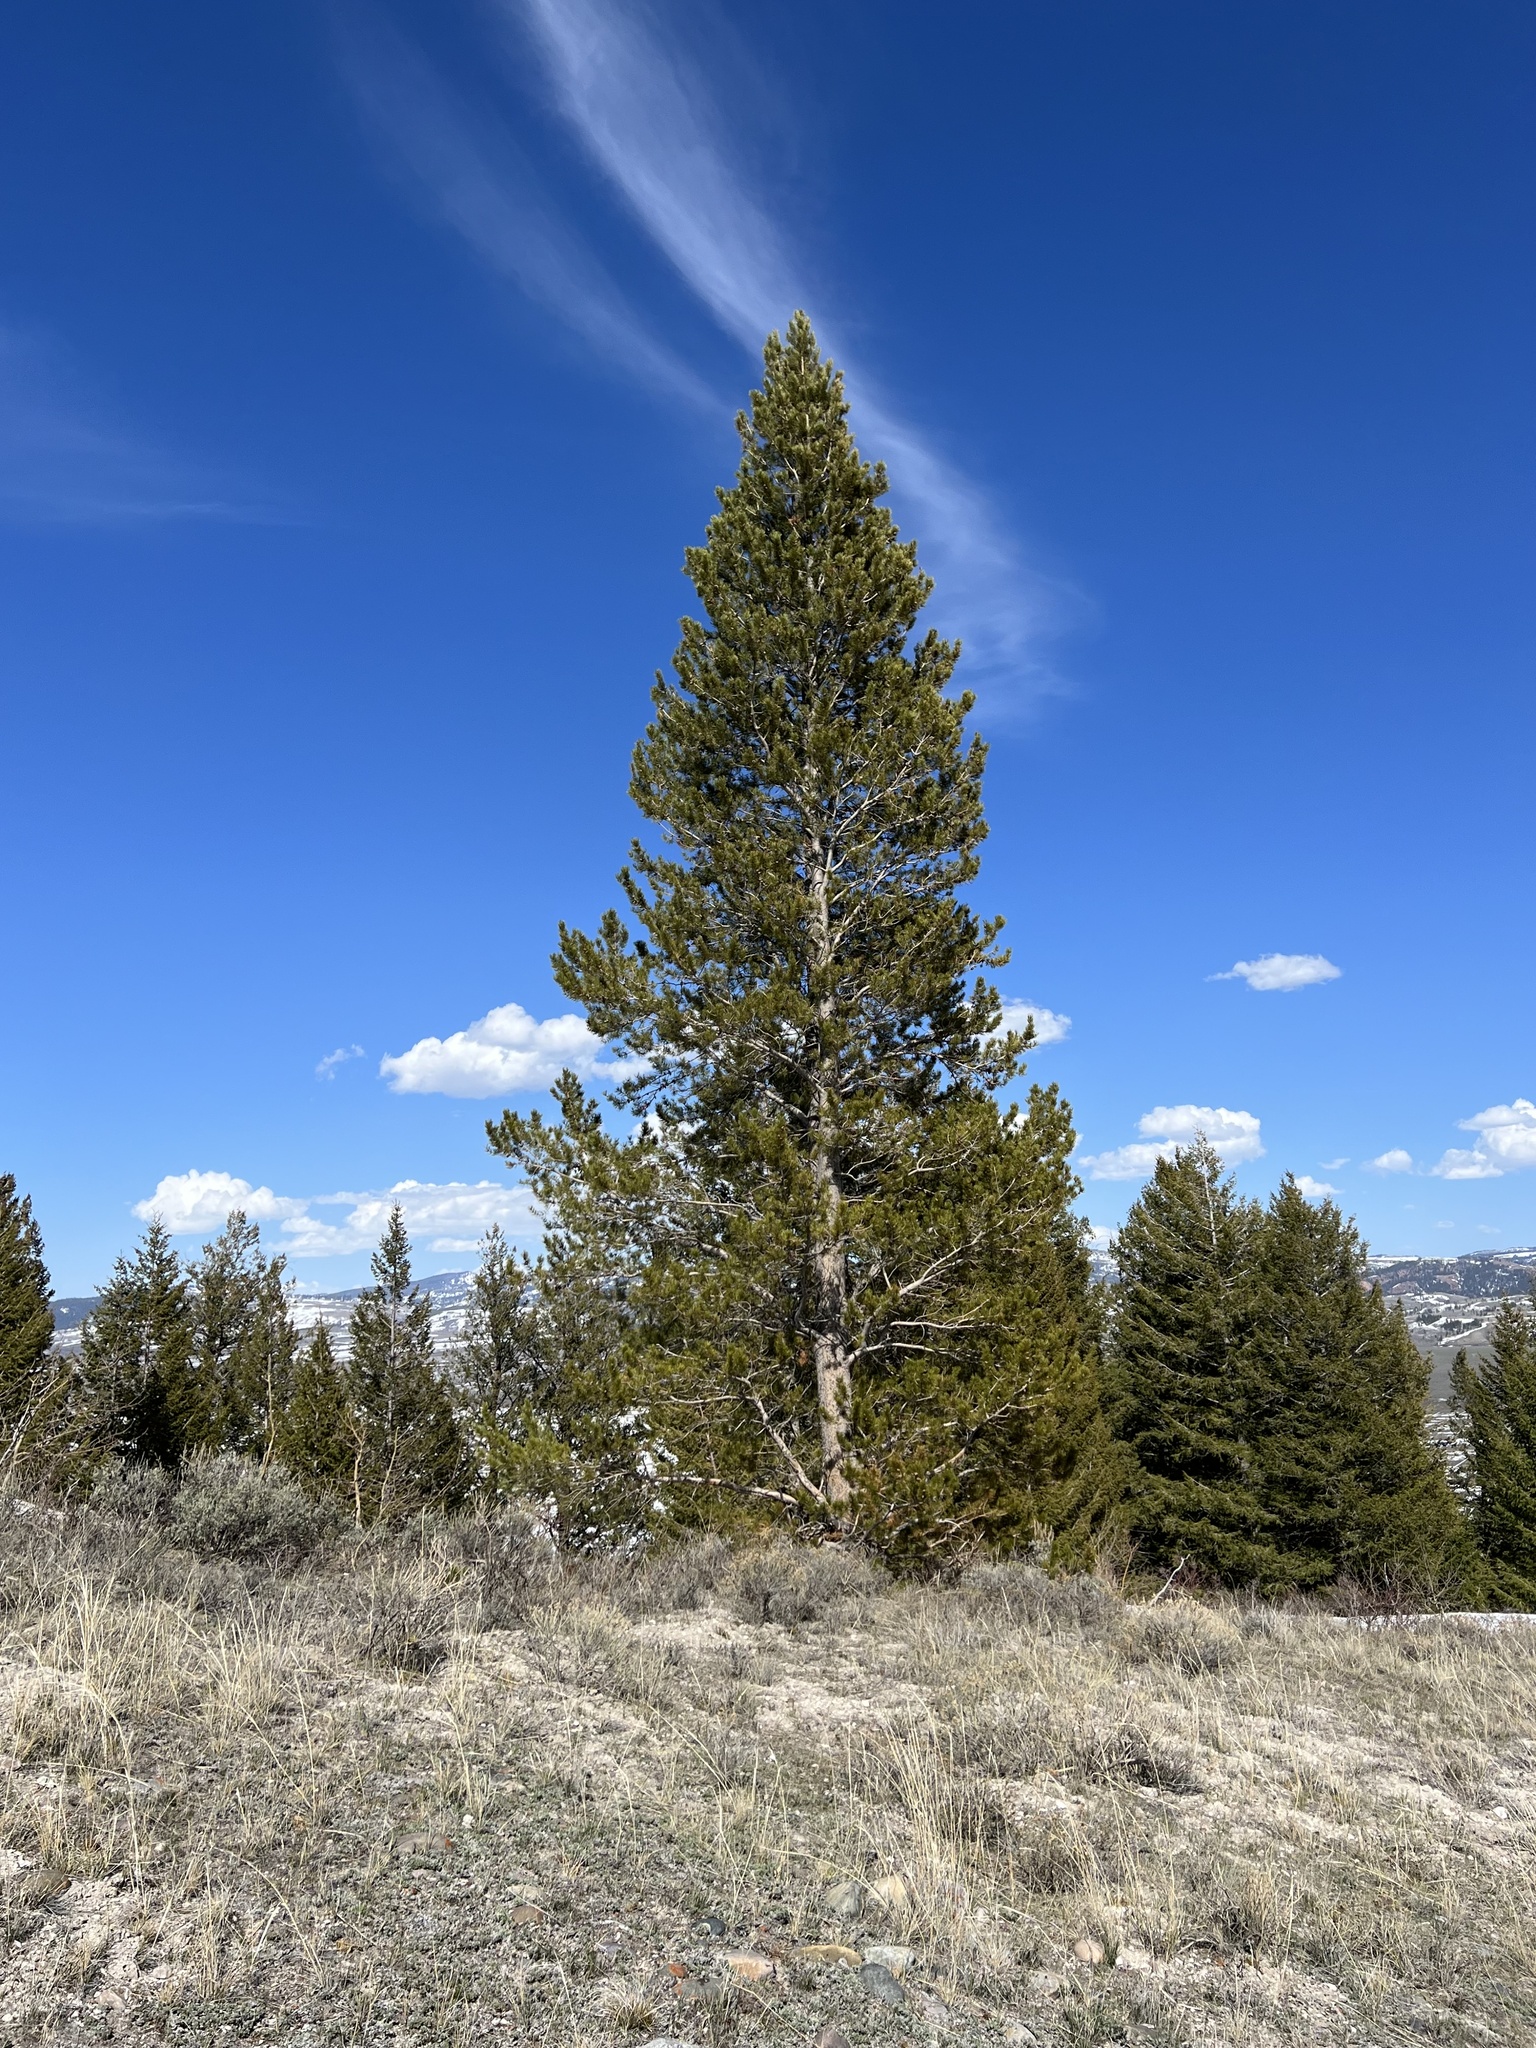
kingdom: Plantae
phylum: Tracheophyta
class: Pinopsida
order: Pinales
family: Pinaceae
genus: Pinus
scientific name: Pinus contorta
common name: Lodgepole pine
